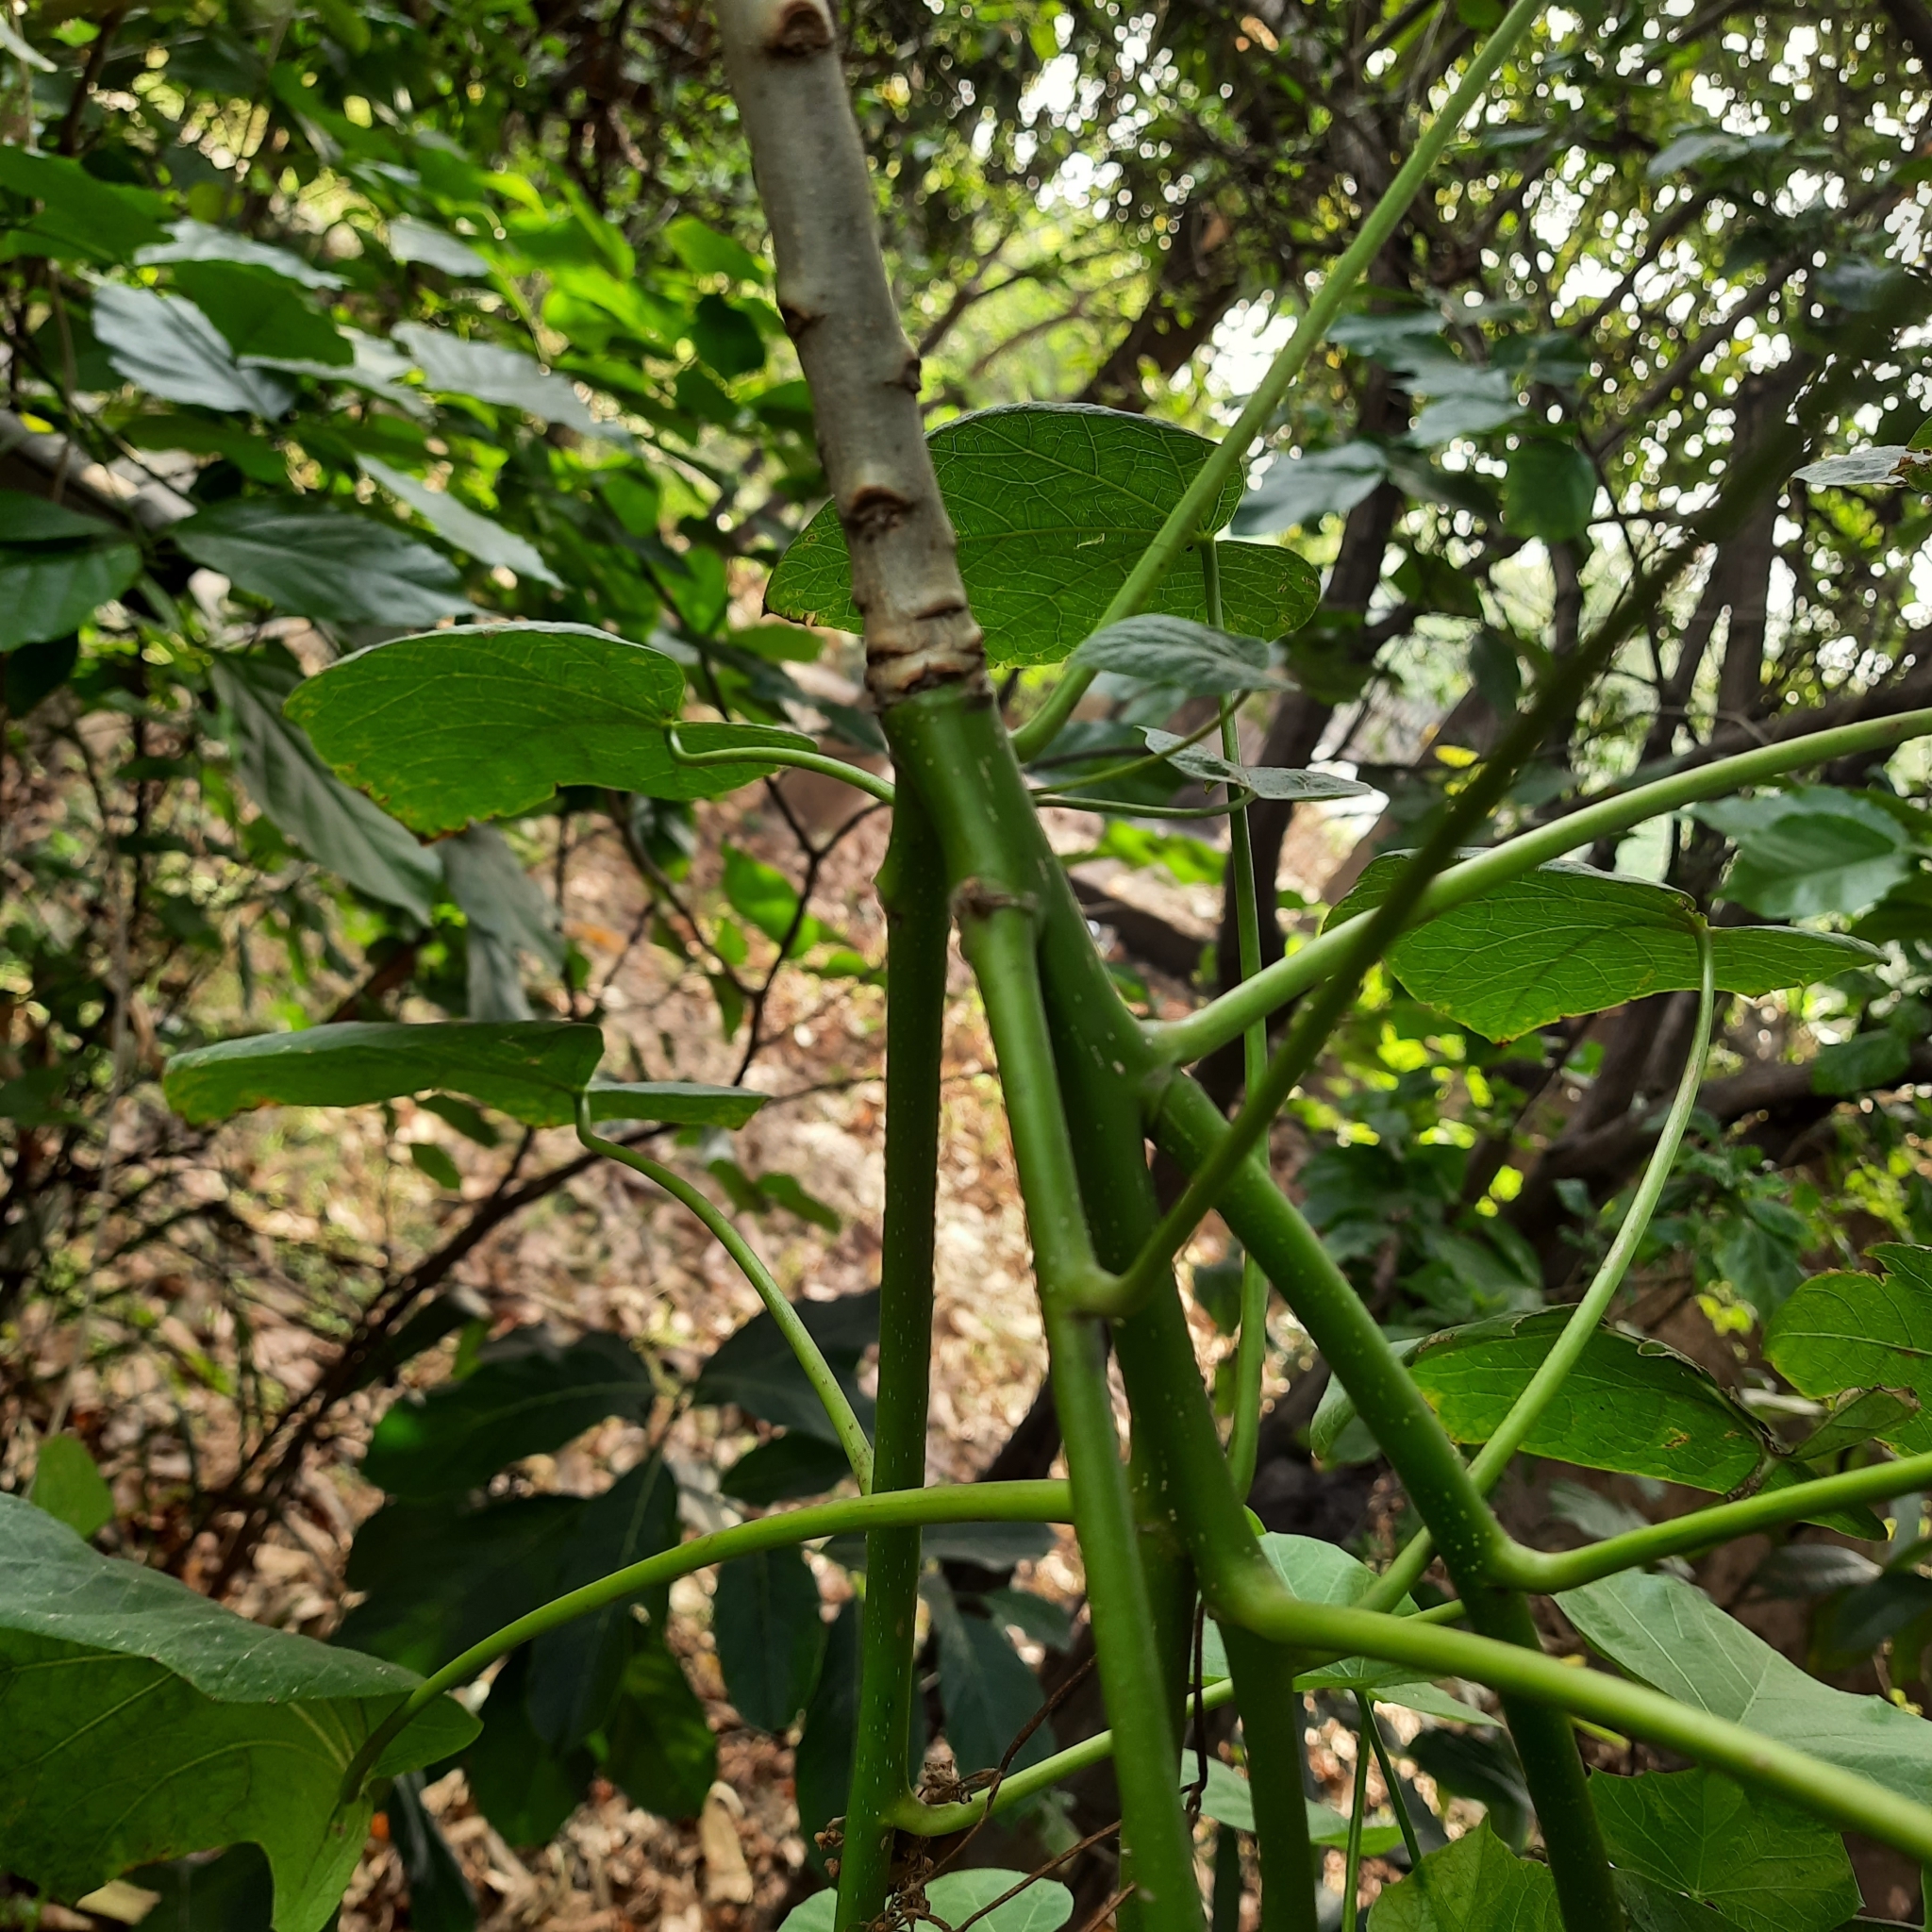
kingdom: Plantae
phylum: Tracheophyta
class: Magnoliopsida
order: Malpighiales
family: Euphorbiaceae
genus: Jatropha
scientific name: Jatropha curcas
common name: Barbados nut
